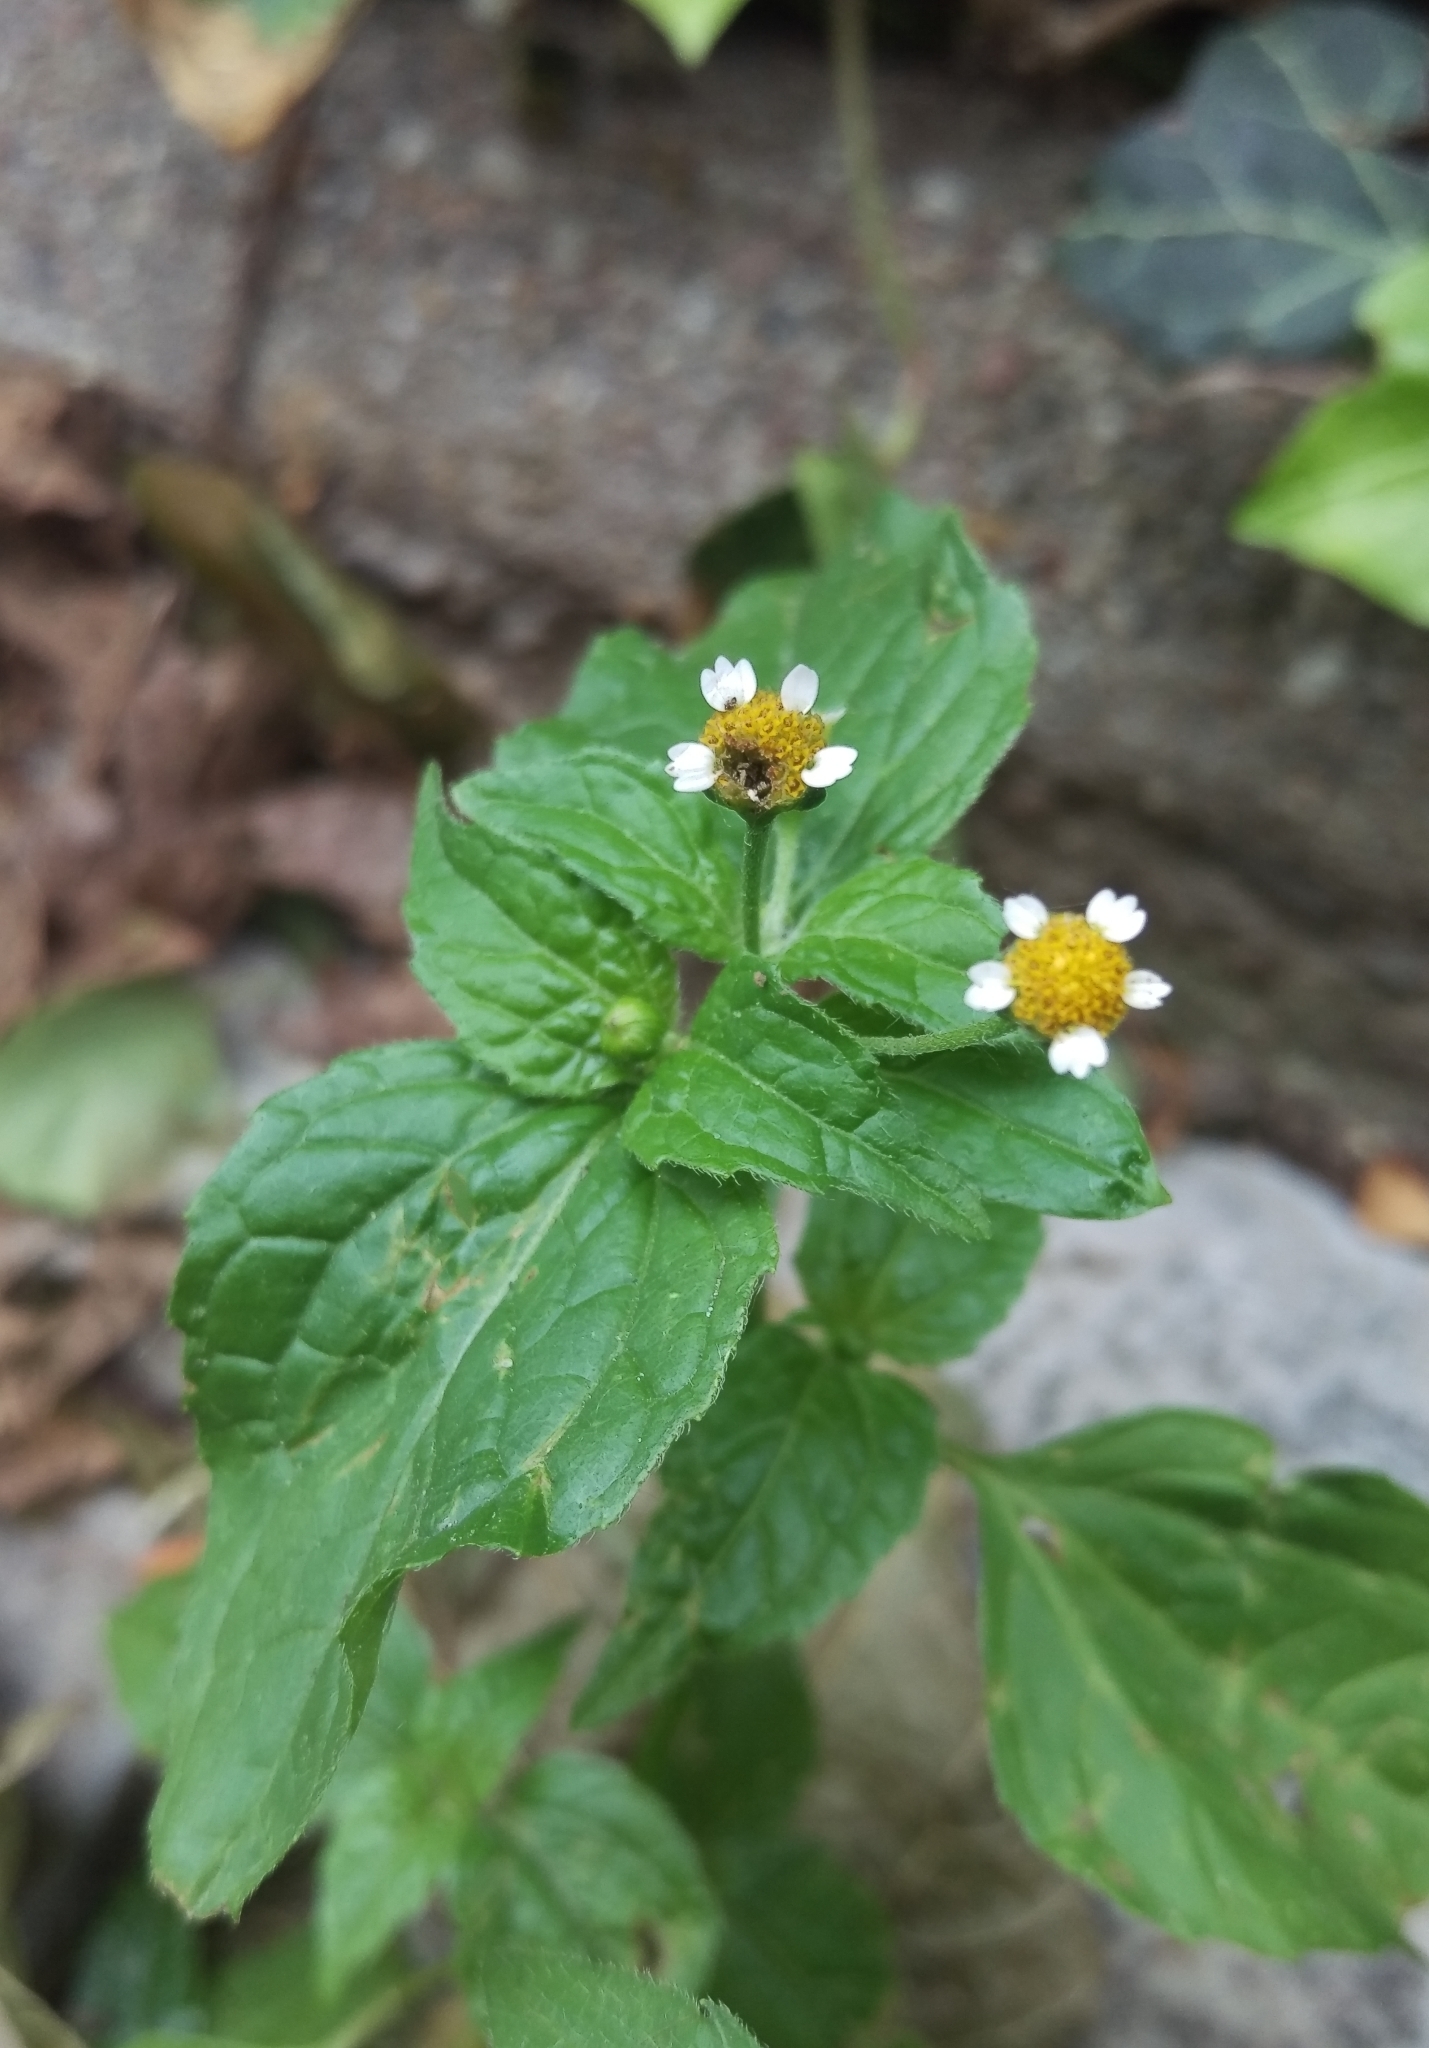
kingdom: Plantae
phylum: Tracheophyta
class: Magnoliopsida
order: Asterales
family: Asteraceae
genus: Galinsoga
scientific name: Galinsoga parviflora
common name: Gallant soldier
